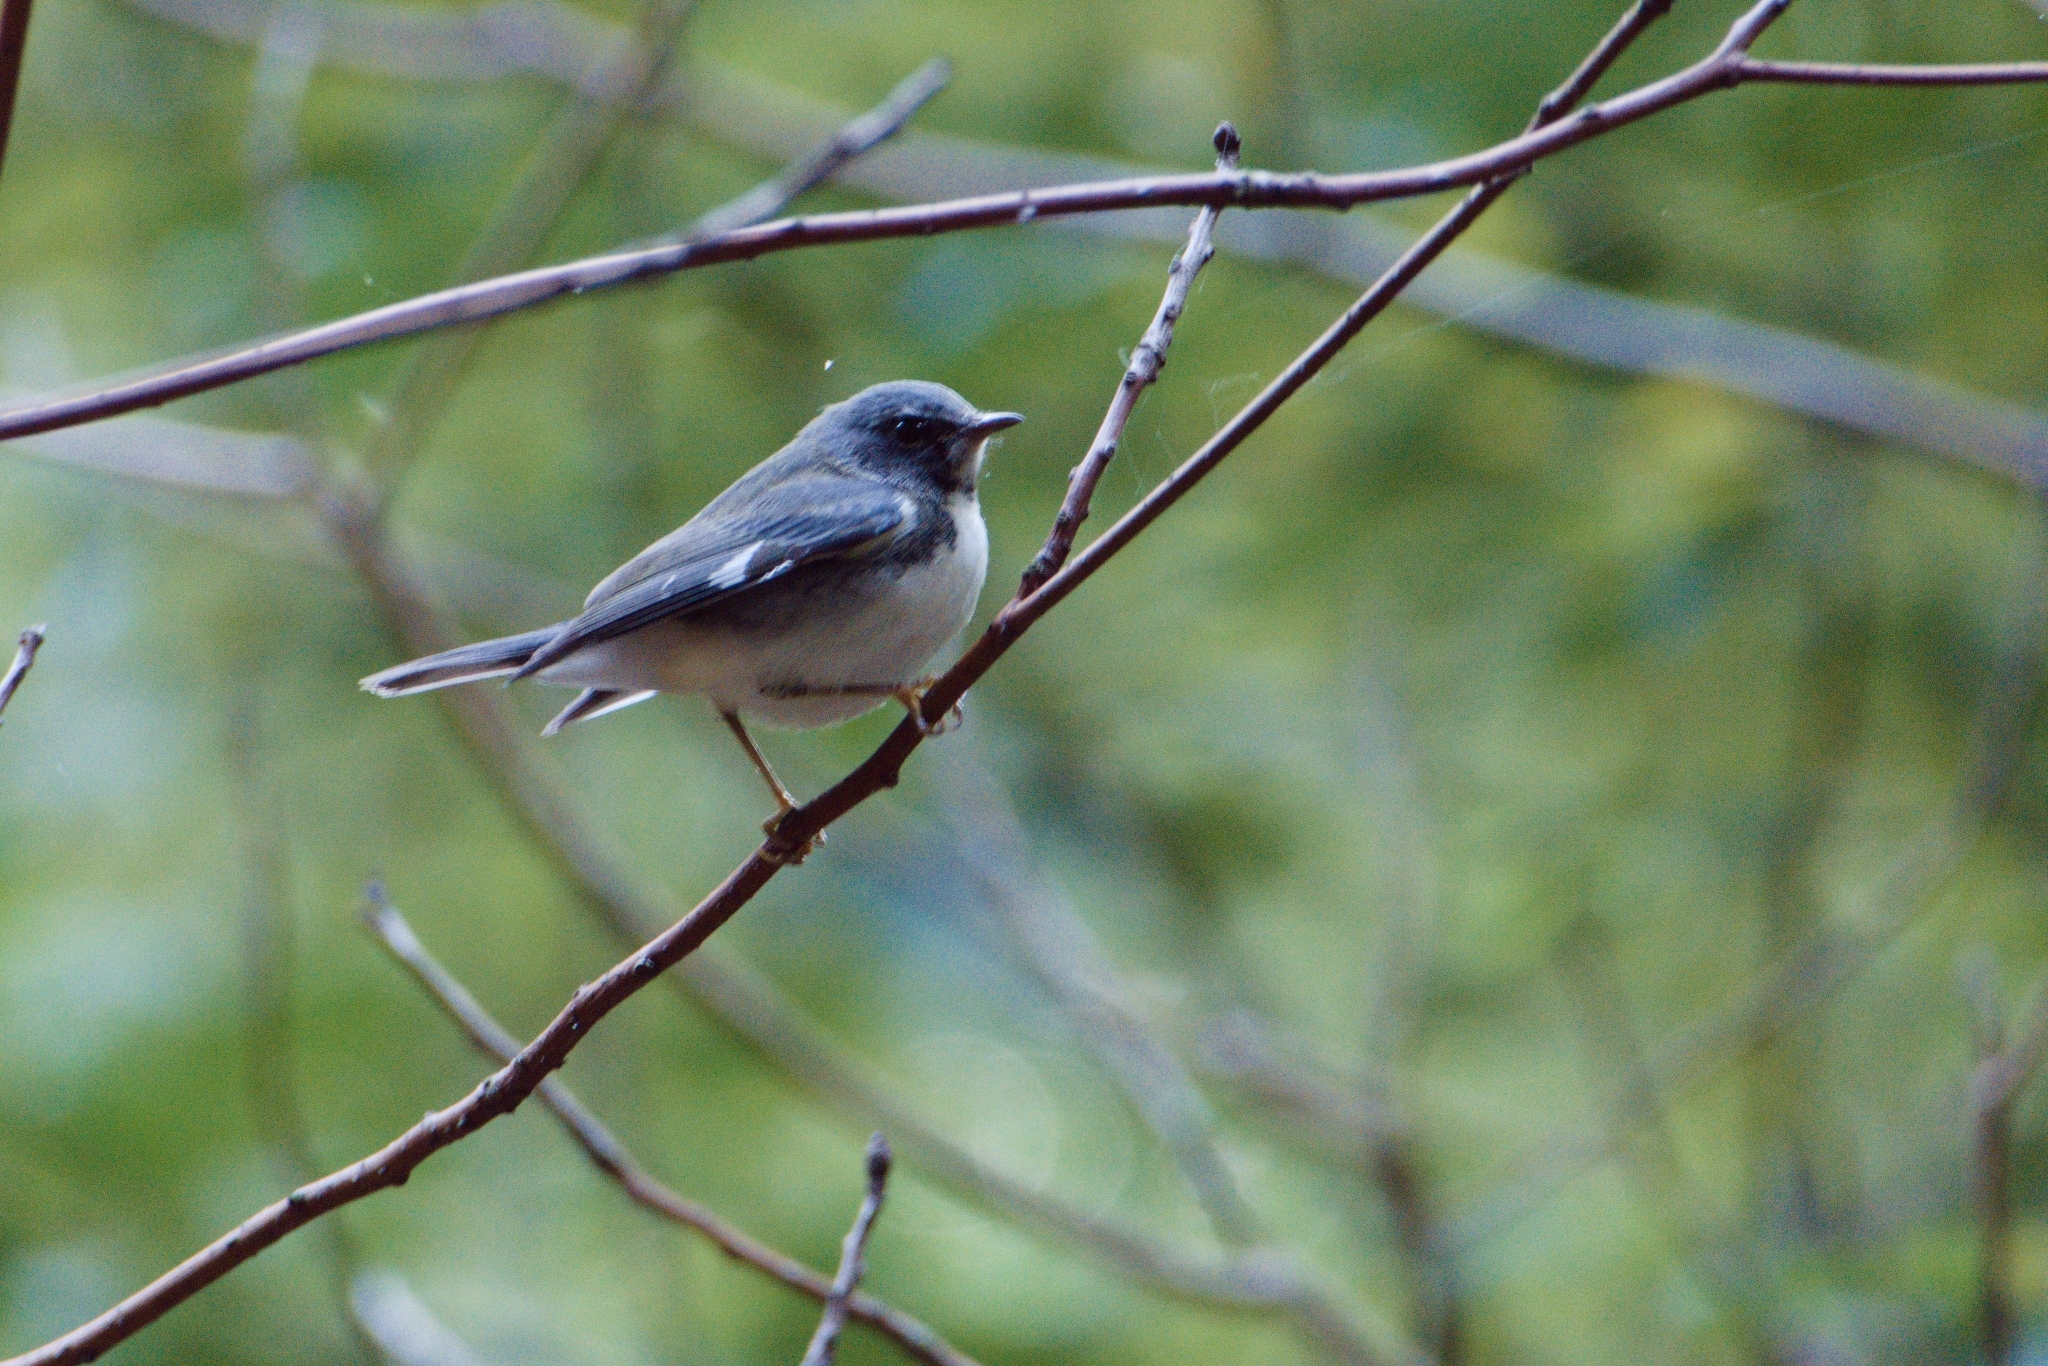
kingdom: Animalia
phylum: Chordata
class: Aves
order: Passeriformes
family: Parulidae
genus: Setophaga
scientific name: Setophaga caerulescens
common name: Black-throated blue warbler
